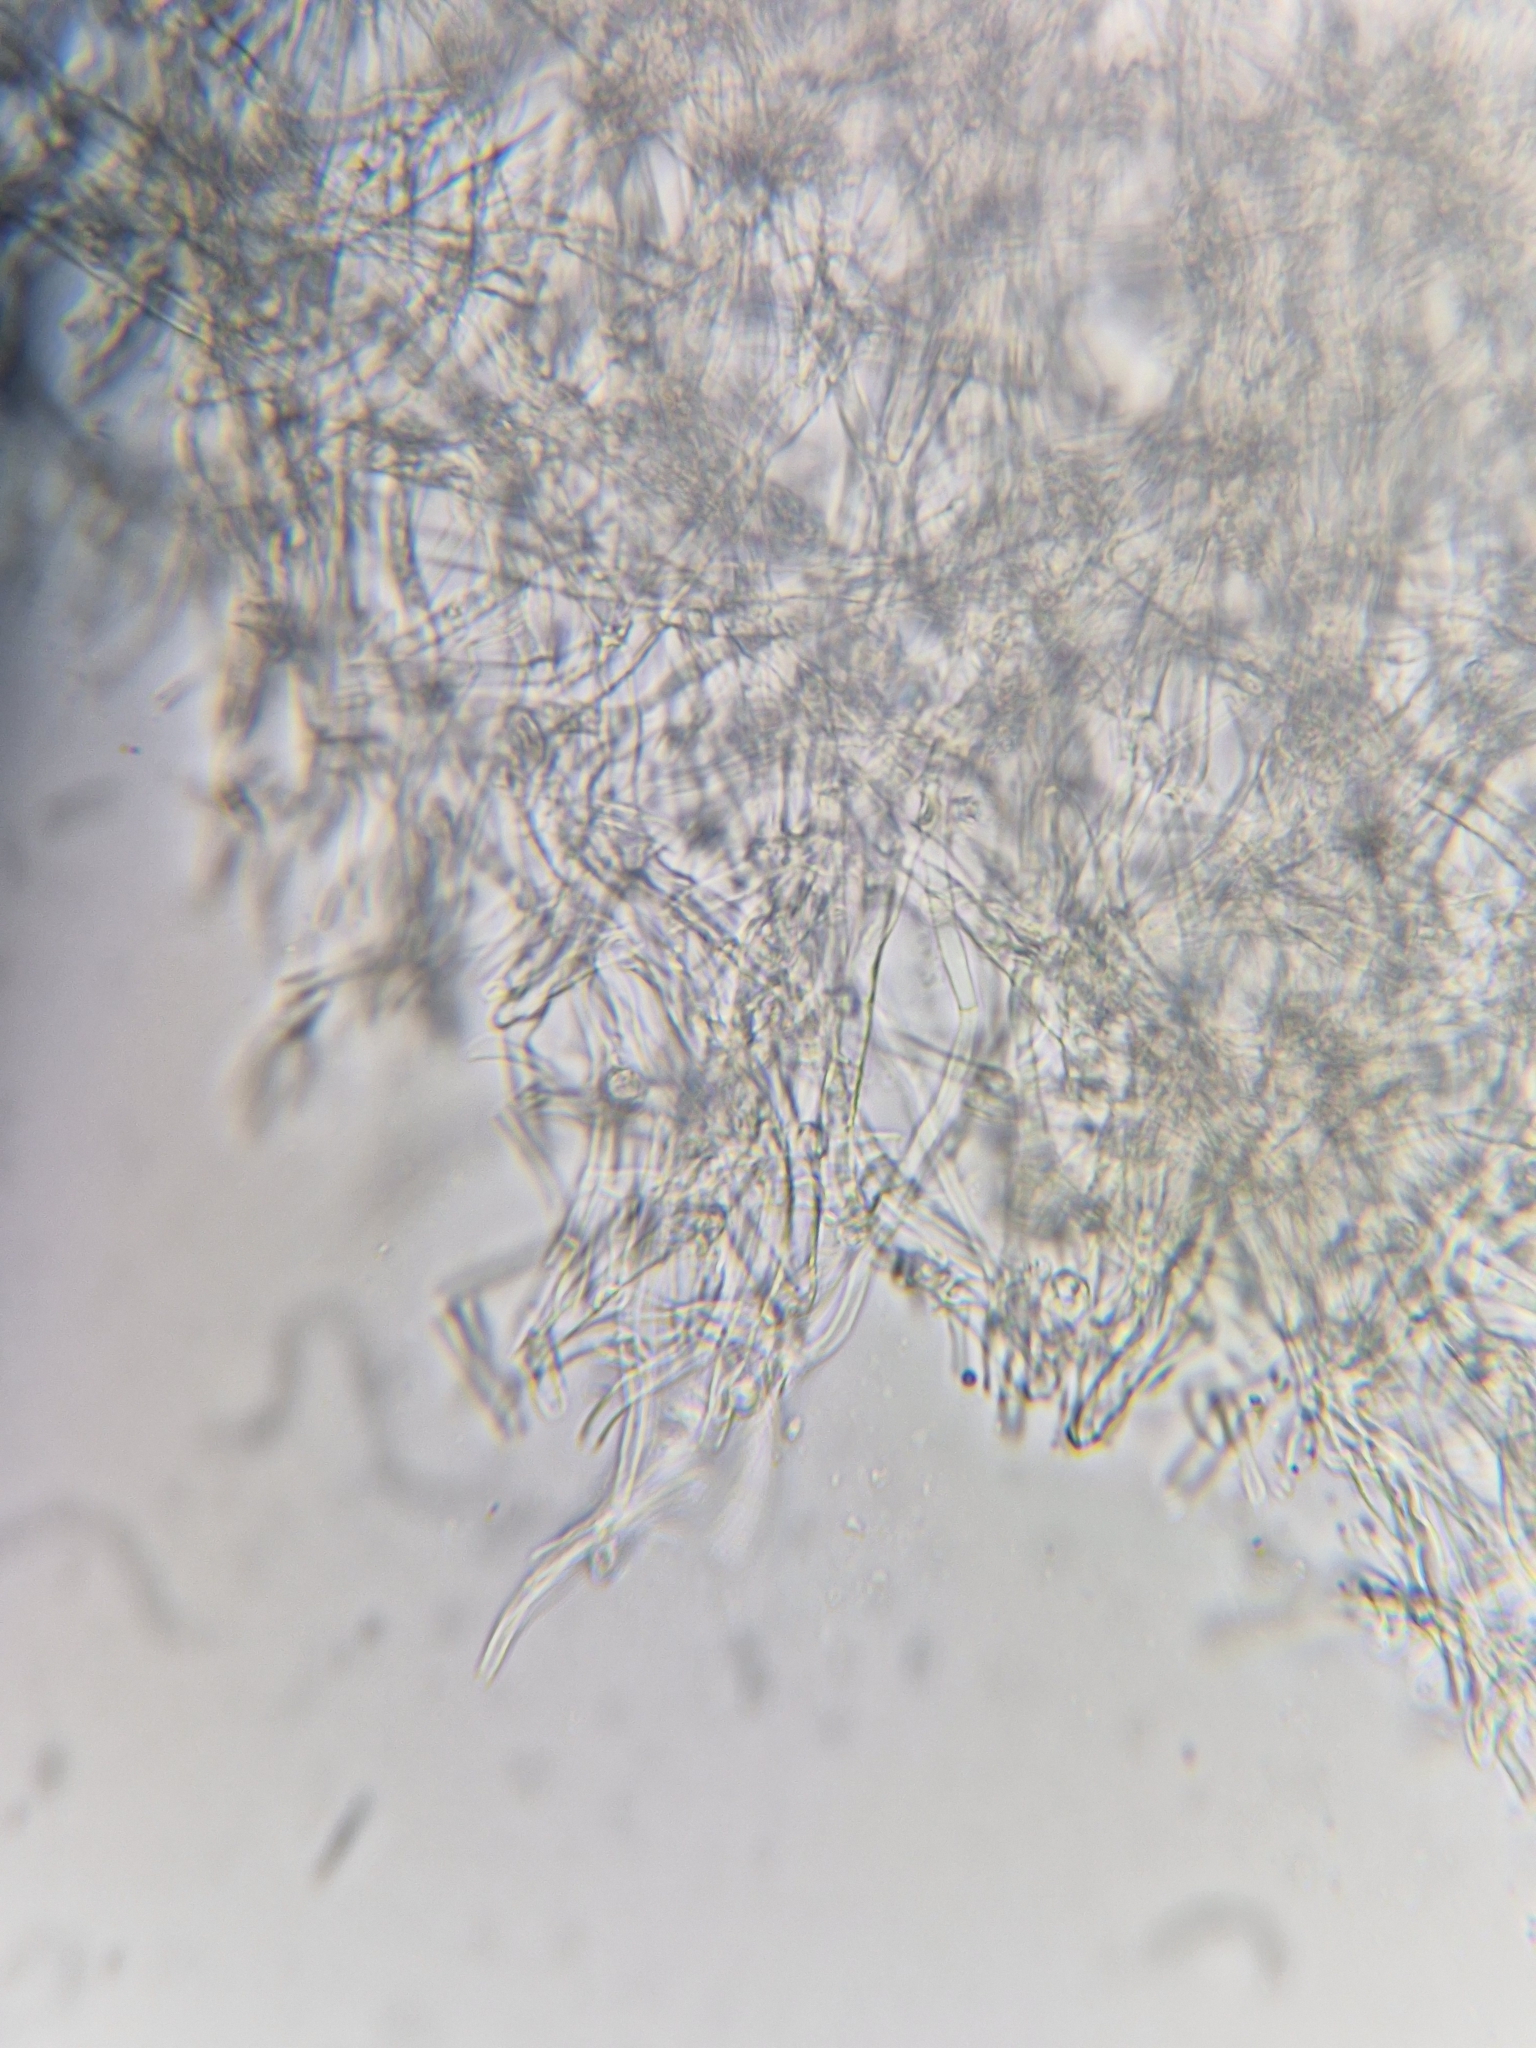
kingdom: Fungi
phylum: Ascomycota
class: Pezizomycetes
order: Pezizales
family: Sarcoscyphaceae
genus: Sarcoscypha
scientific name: Sarcoscypha coccinea
